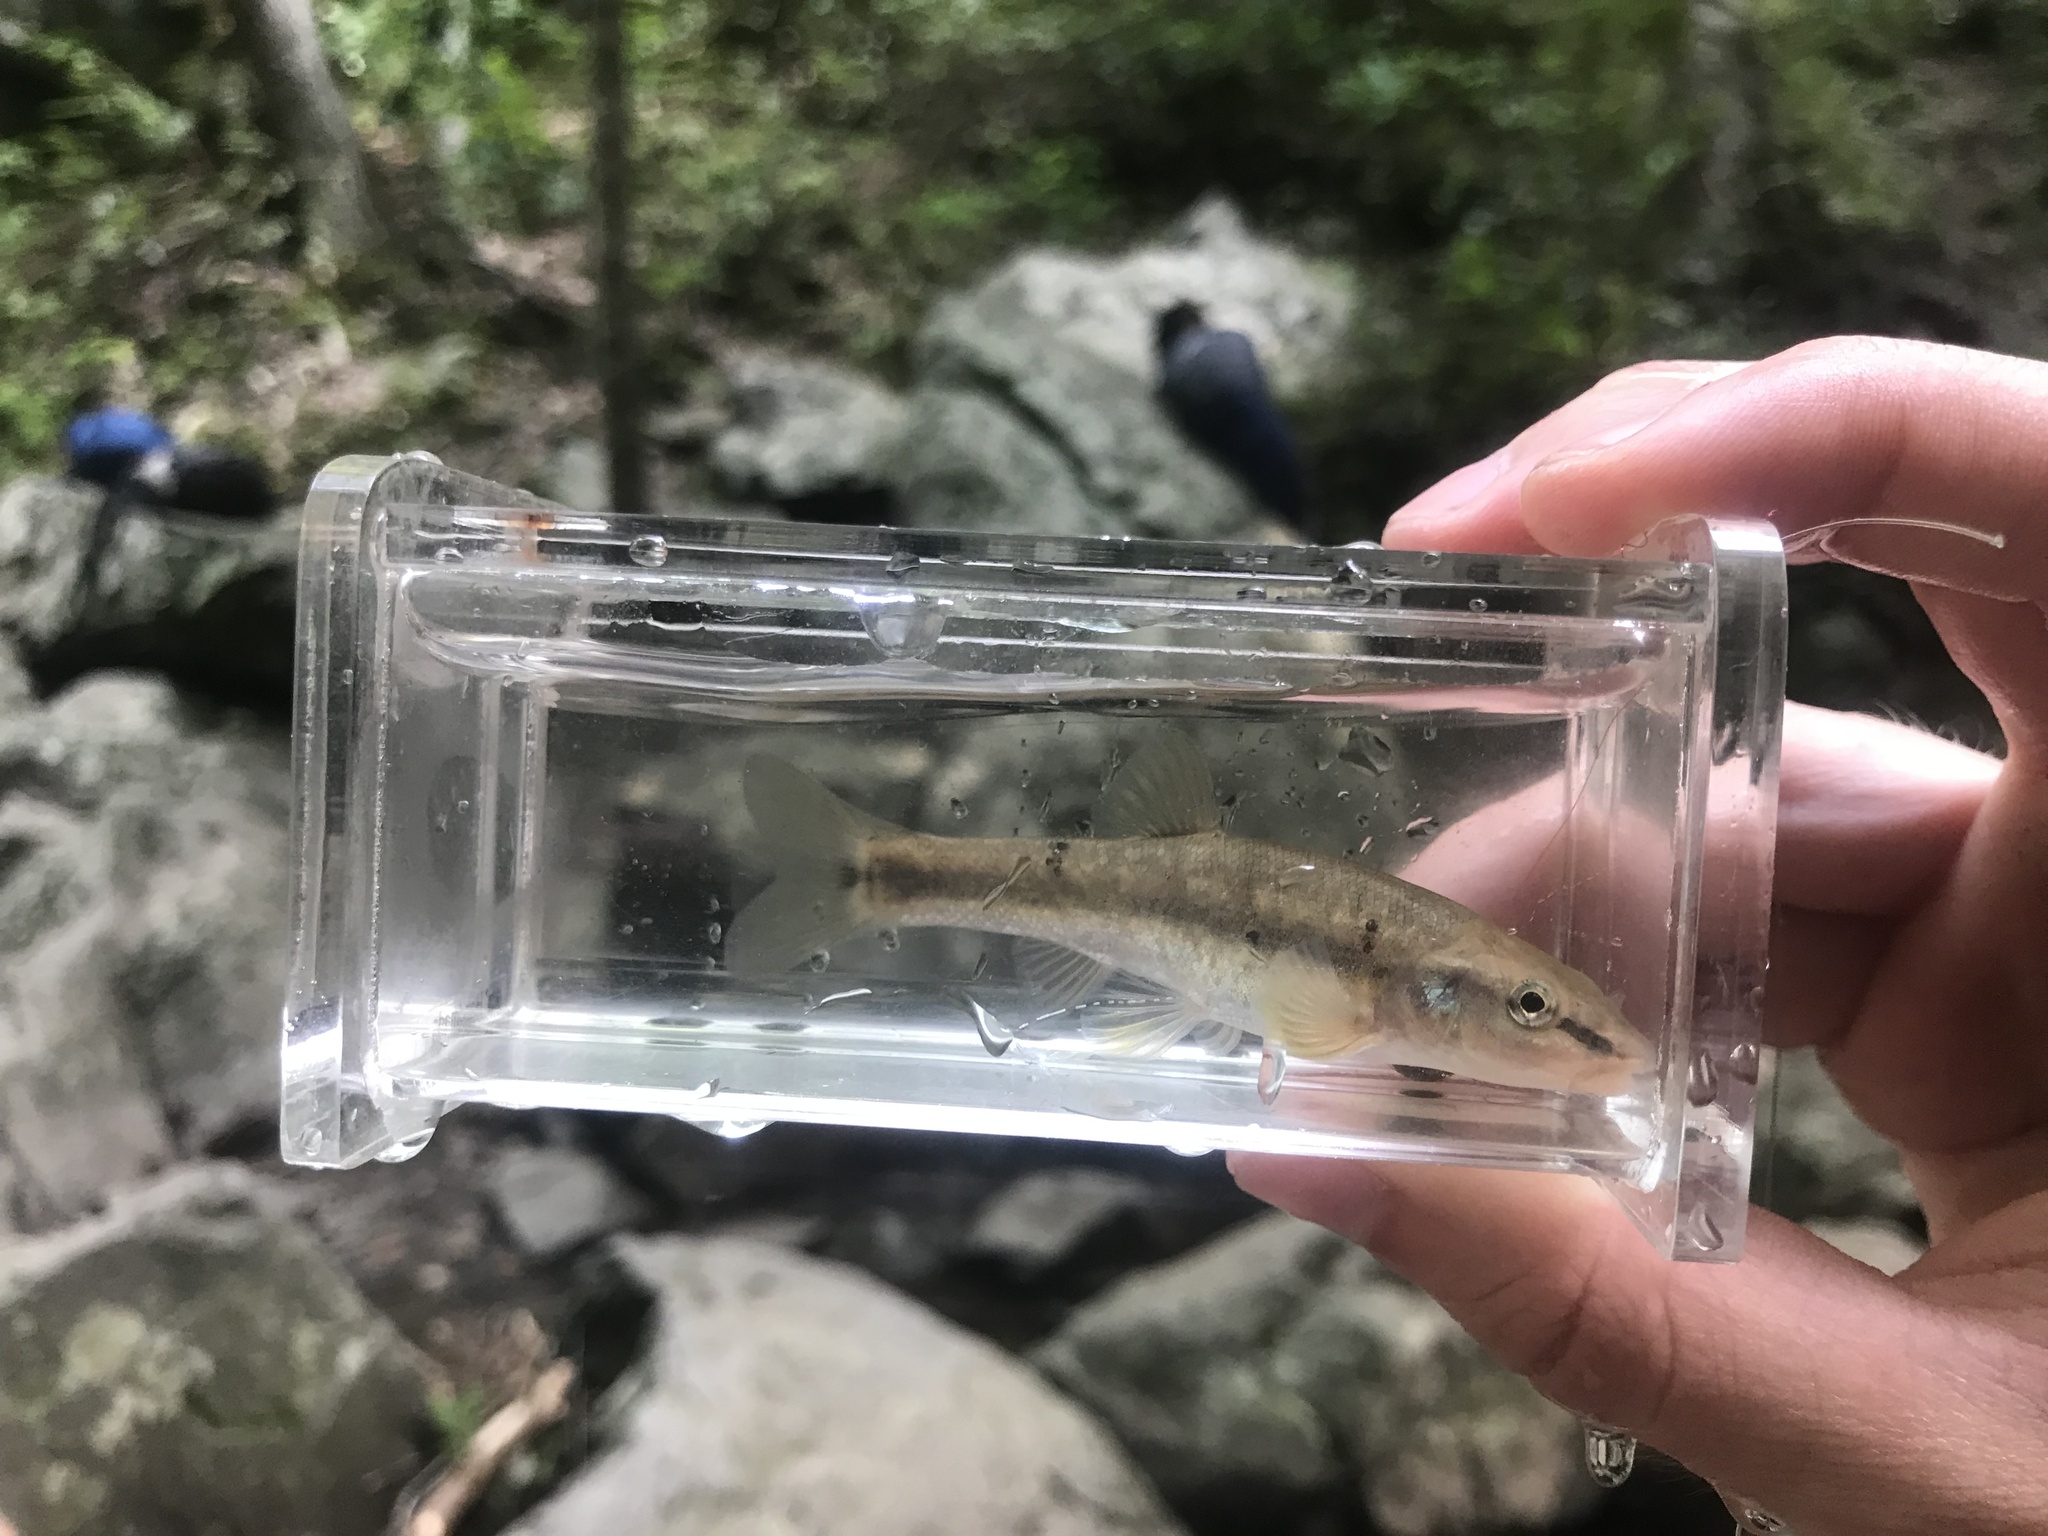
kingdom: Animalia
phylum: Chordata
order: Cypriniformes
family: Cyprinidae
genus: Rhinichthys
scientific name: Rhinichthys obtusus
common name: Western blacknose dace
